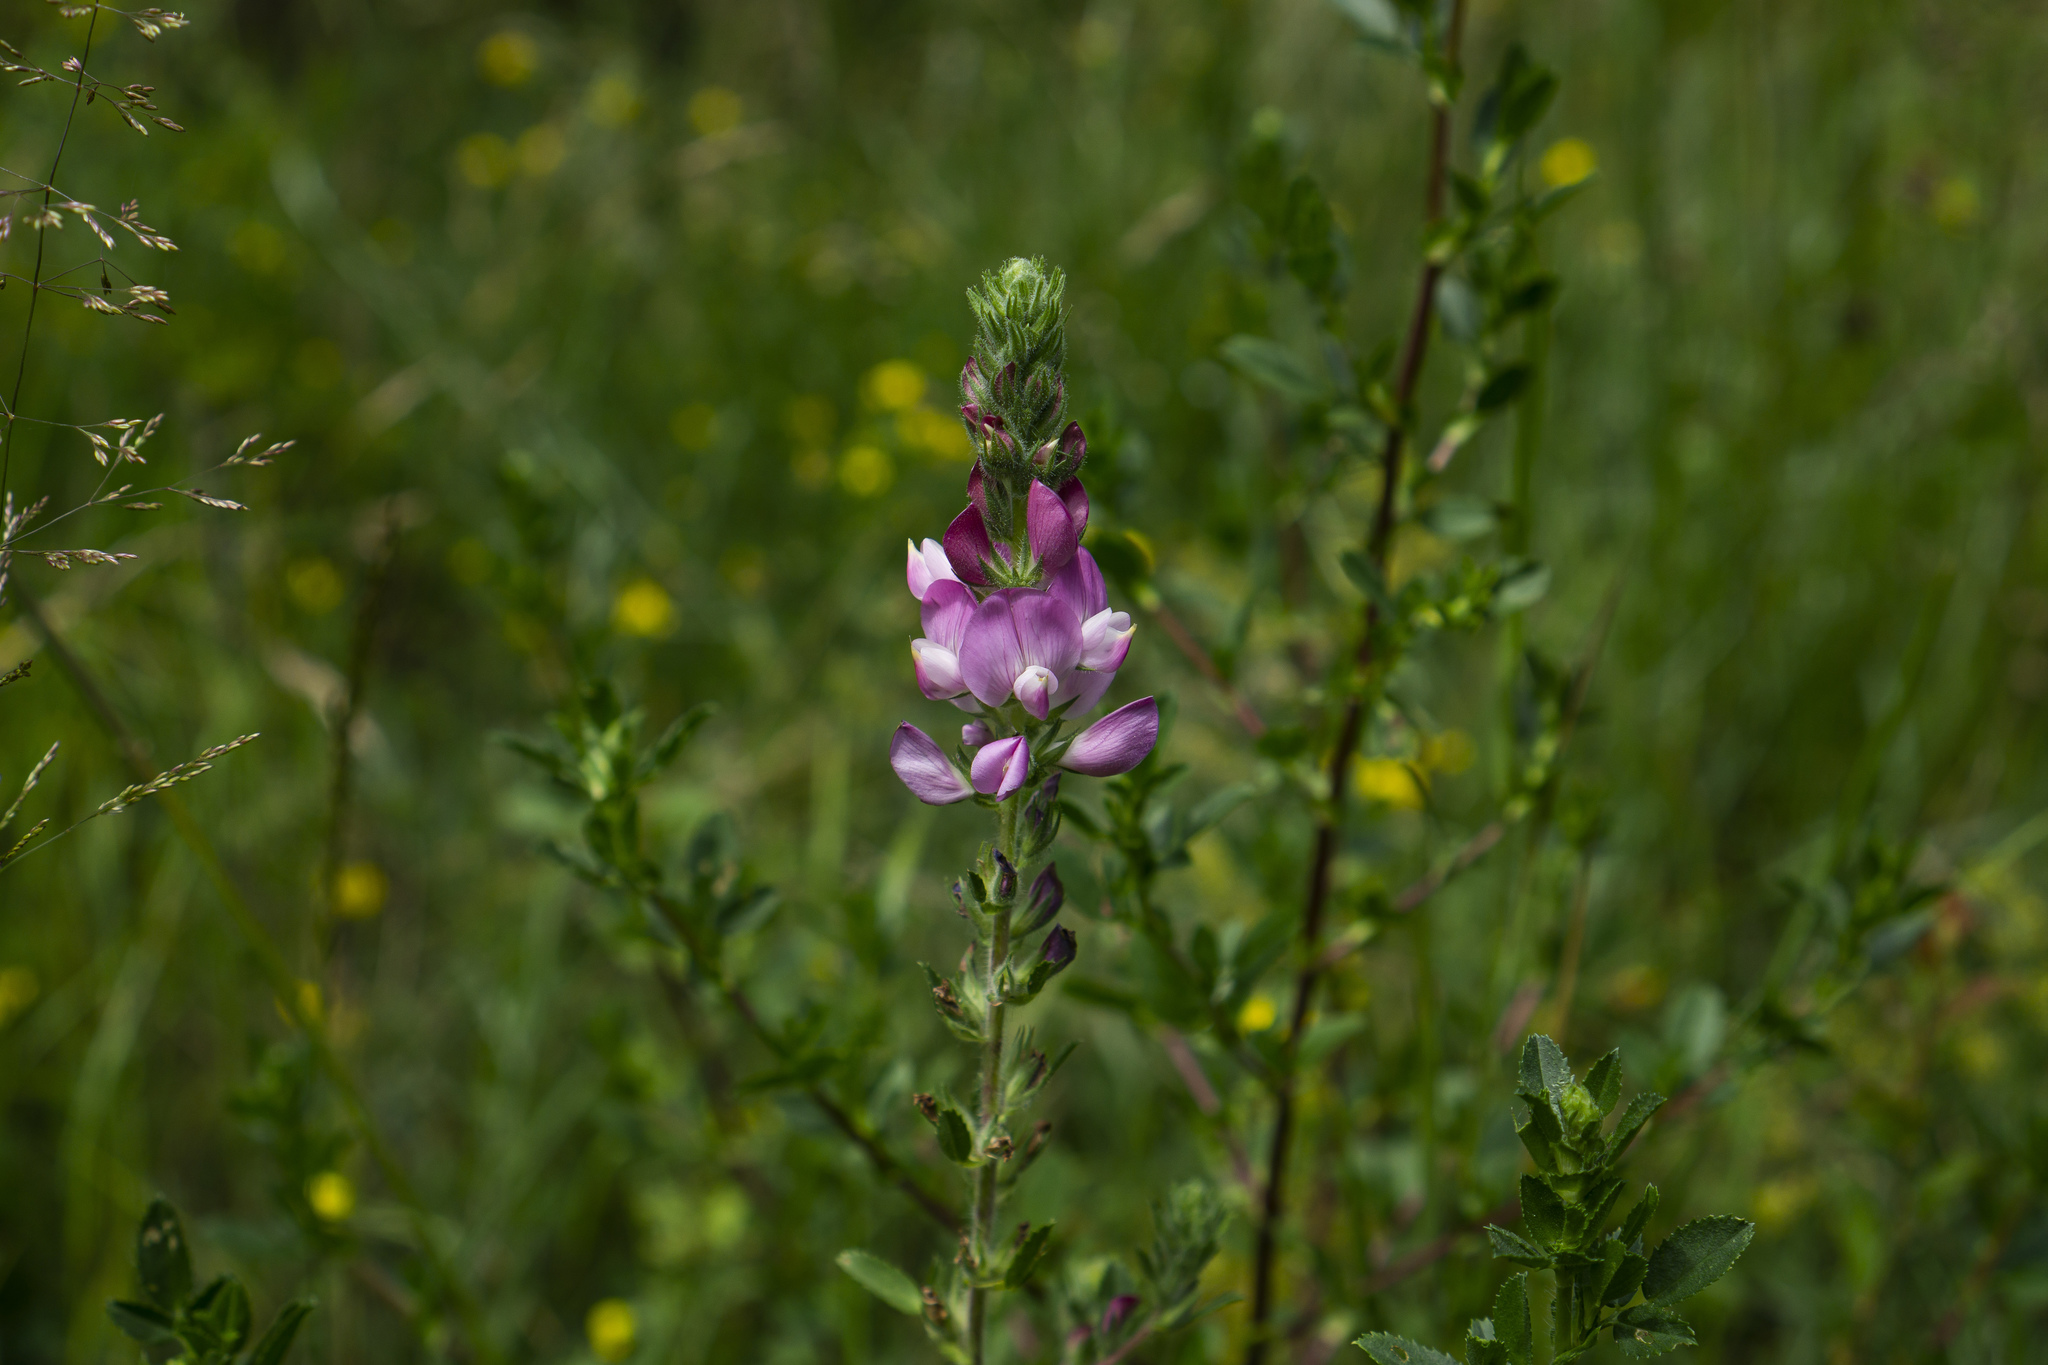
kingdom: Plantae
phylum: Tracheophyta
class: Magnoliopsida
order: Fabales
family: Fabaceae
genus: Ononis
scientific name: Ononis spinosa
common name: Spiny restharrow
